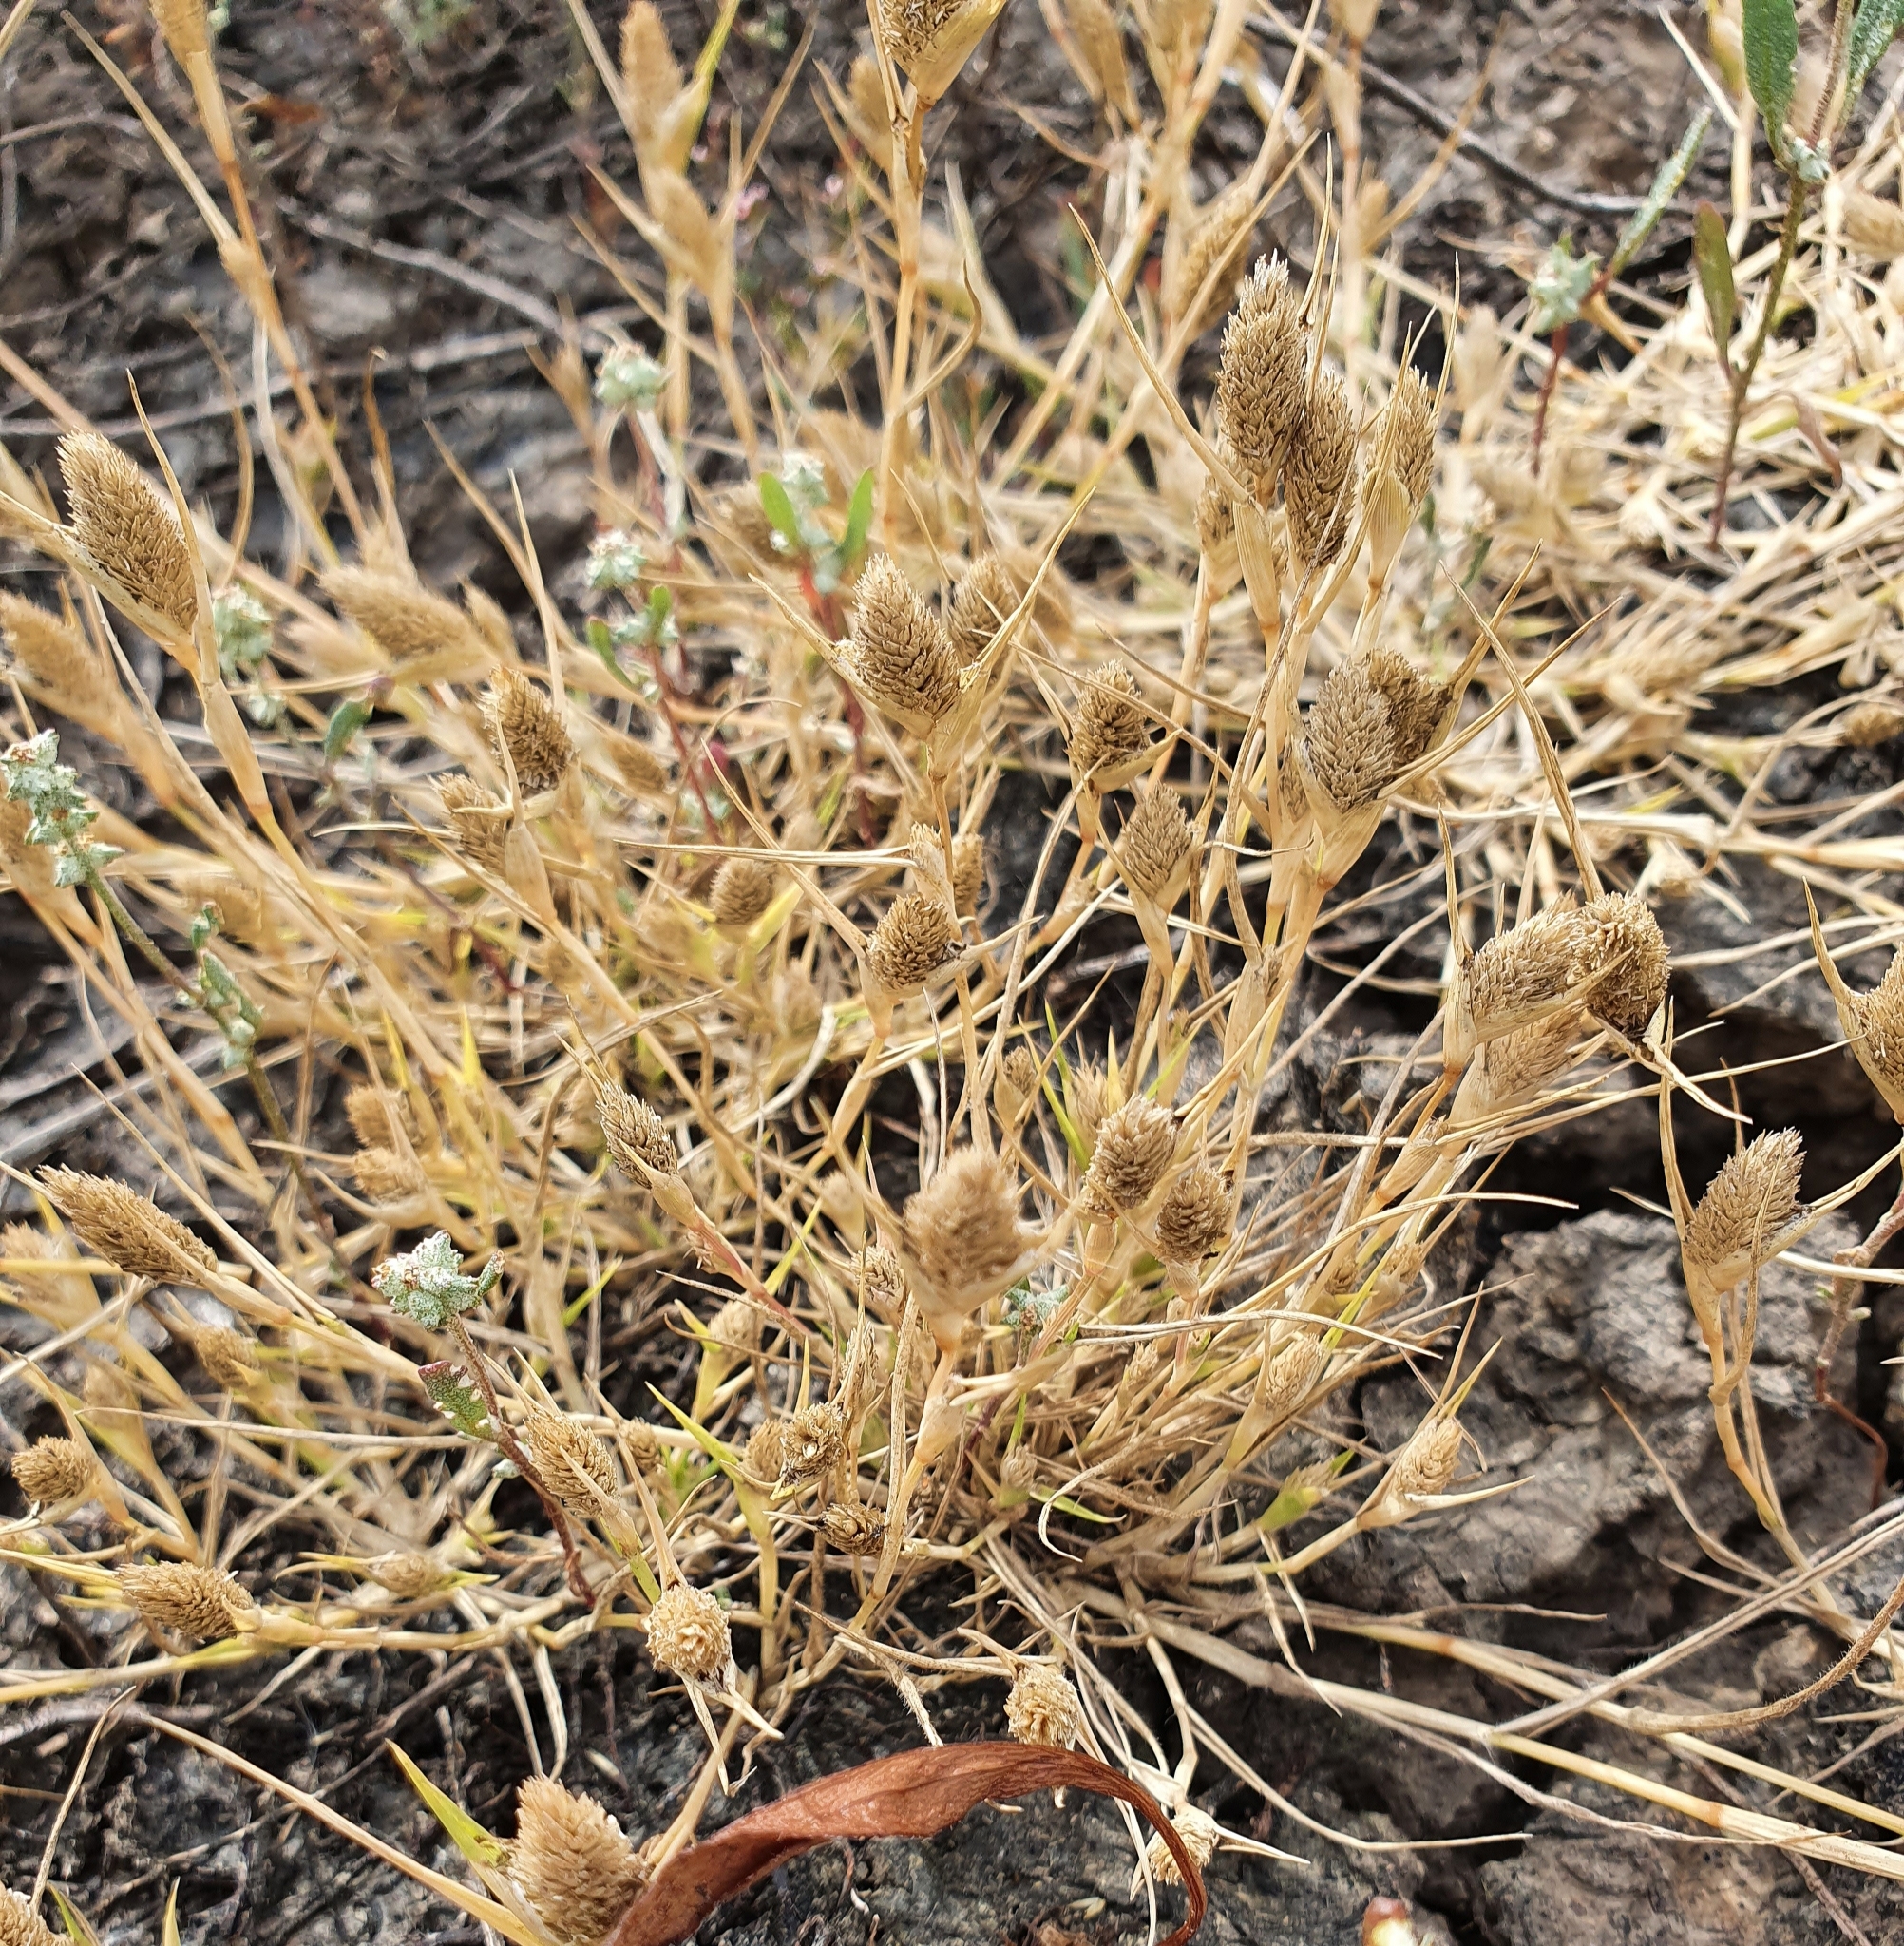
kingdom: Plantae
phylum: Tracheophyta
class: Liliopsida
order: Poales
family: Poaceae
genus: Sporobolus
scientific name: Sporobolus borszczowii
